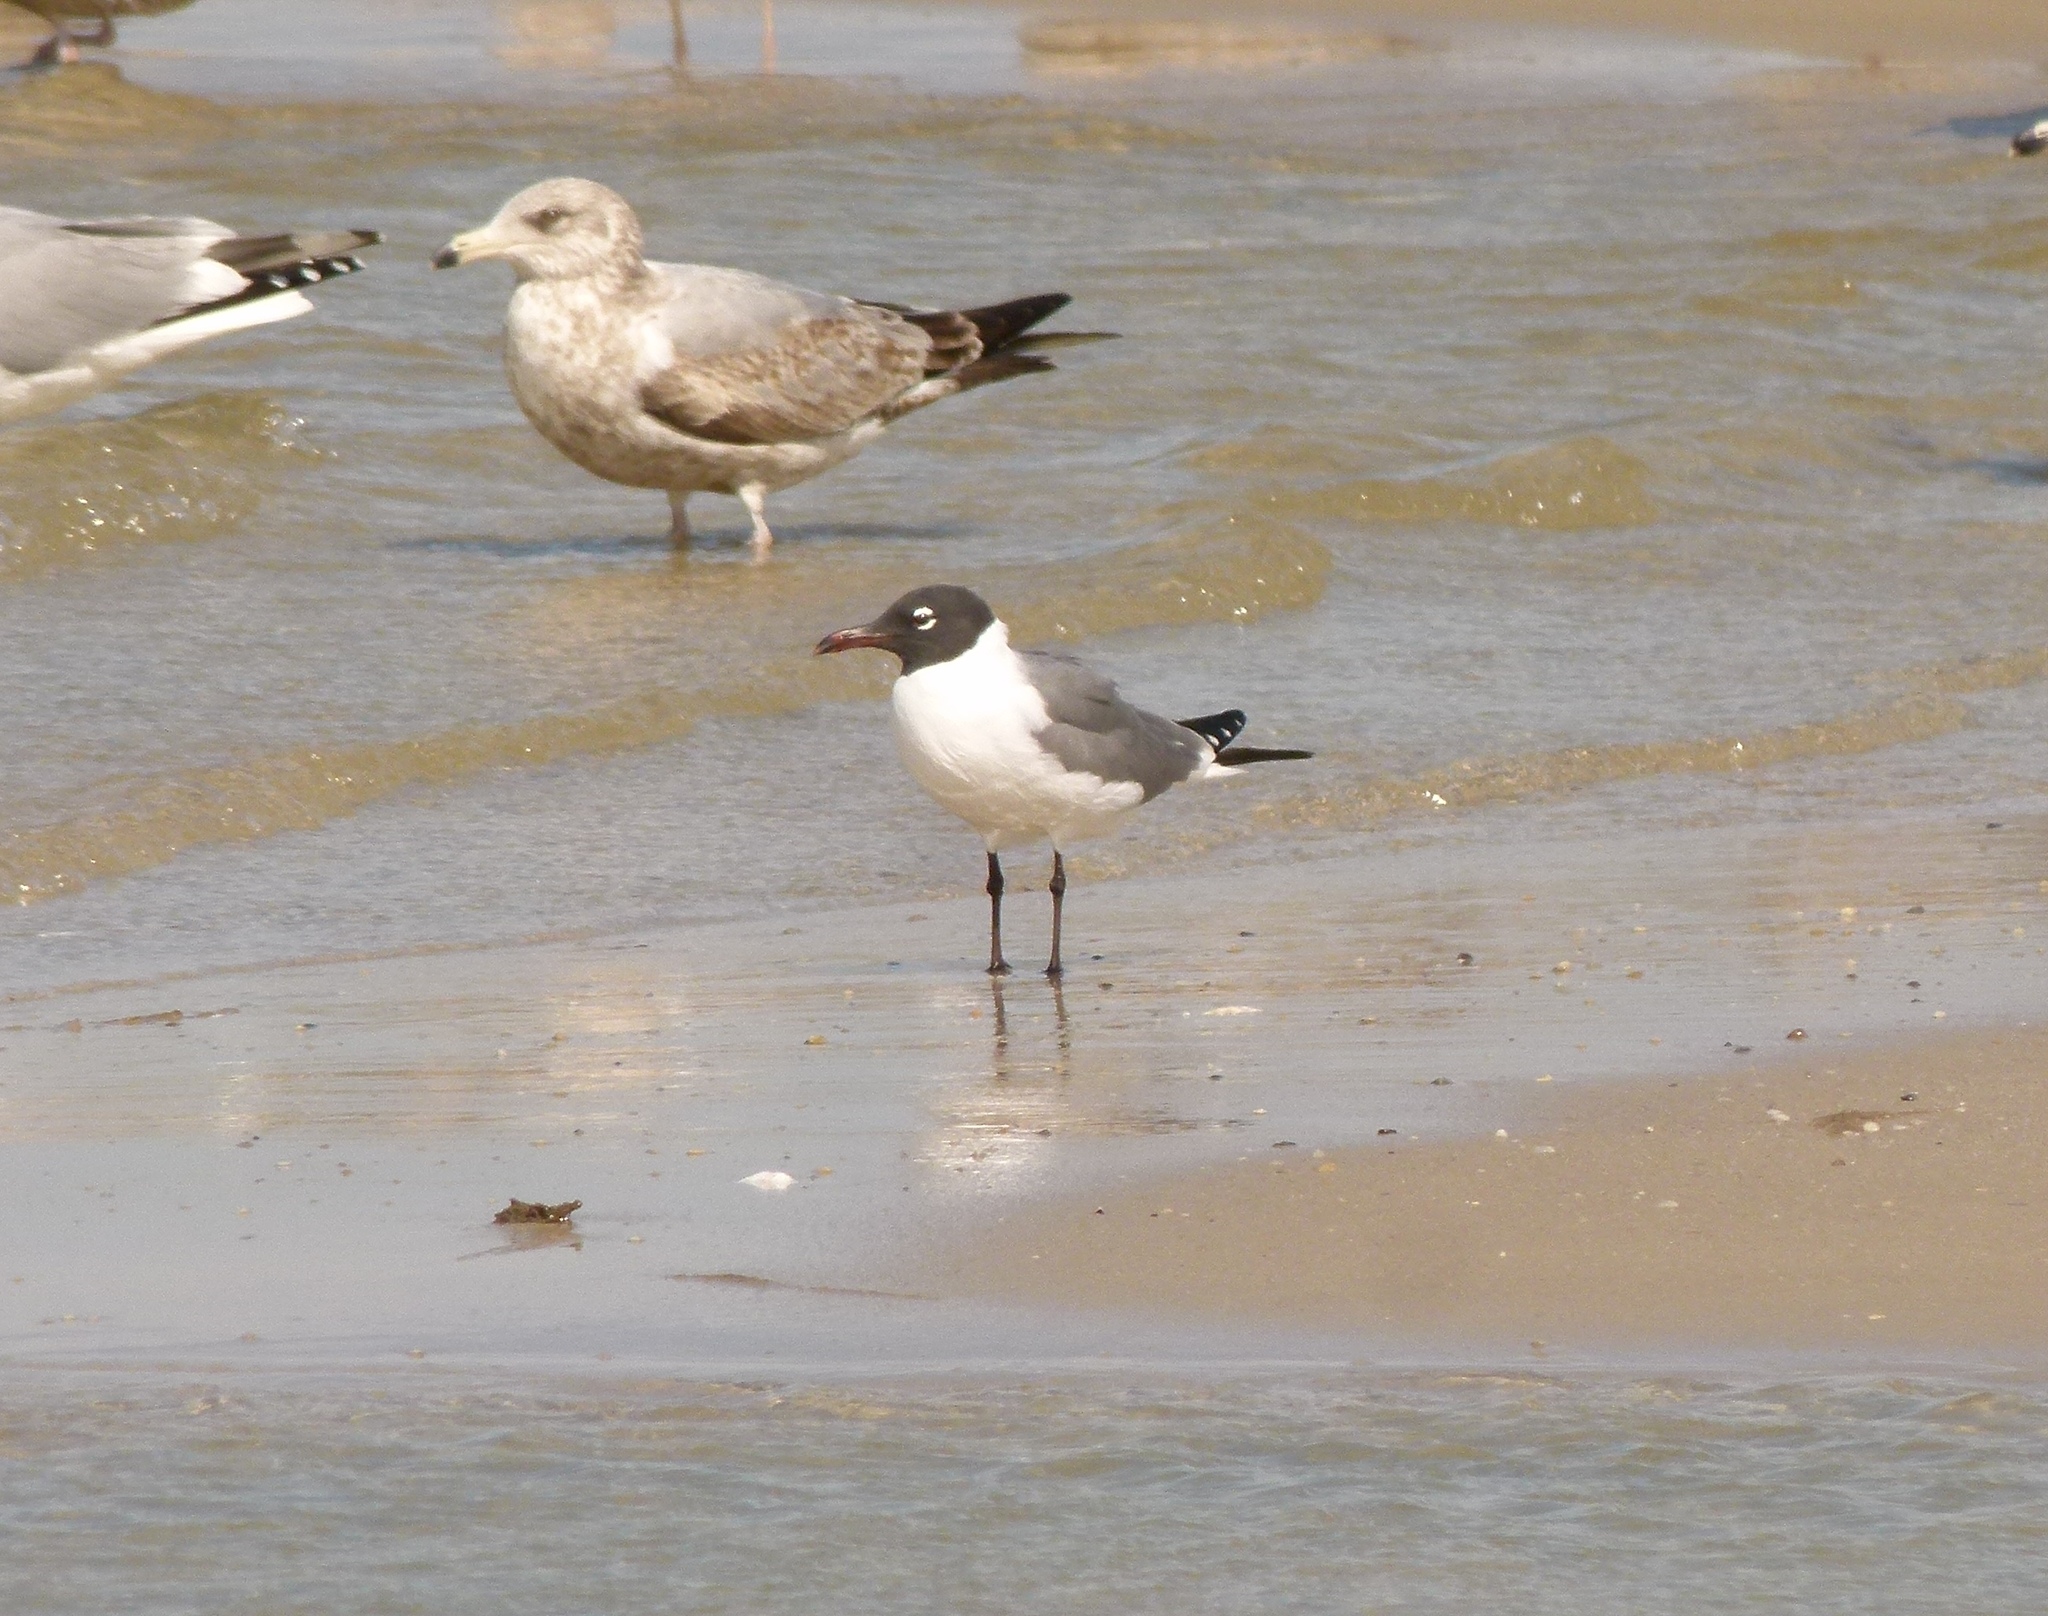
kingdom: Animalia
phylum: Chordata
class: Aves
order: Charadriiformes
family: Laridae
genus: Leucophaeus
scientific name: Leucophaeus atricilla
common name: Laughing gull
